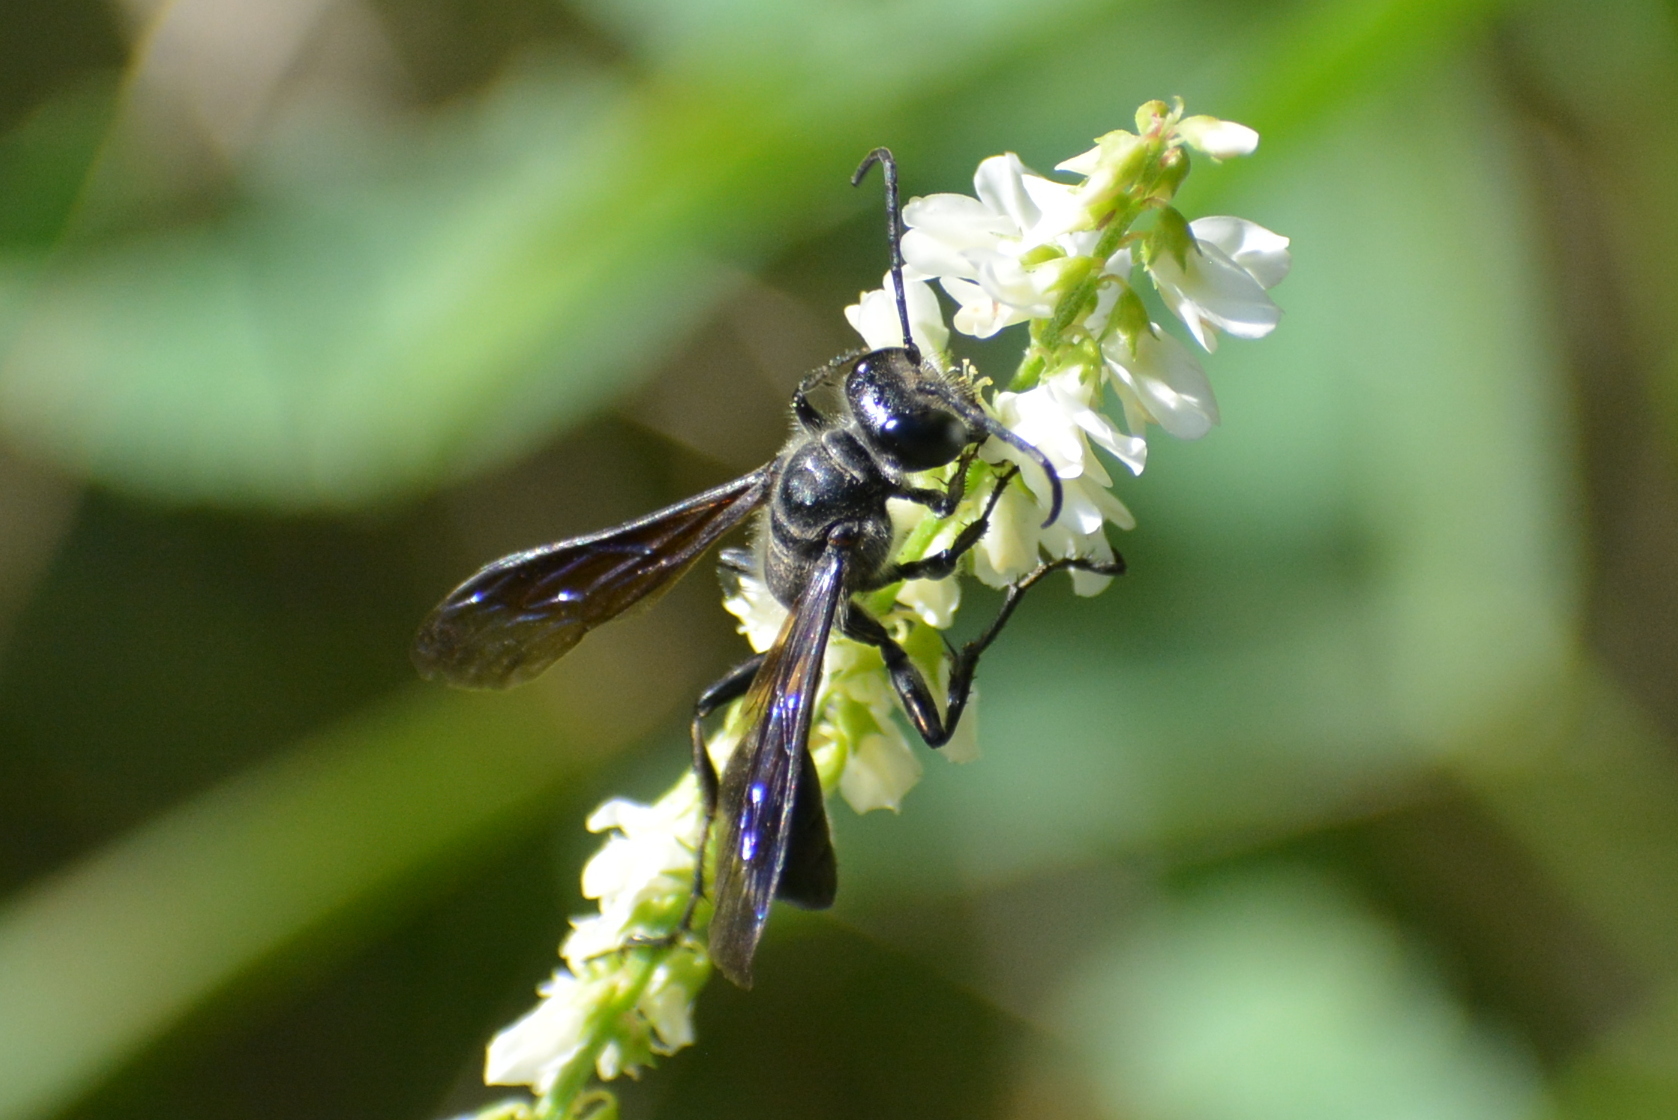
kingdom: Animalia
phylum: Arthropoda
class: Insecta
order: Hymenoptera
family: Sphecidae
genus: Isodontia
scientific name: Isodontia mexicana
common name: Mud dauber
